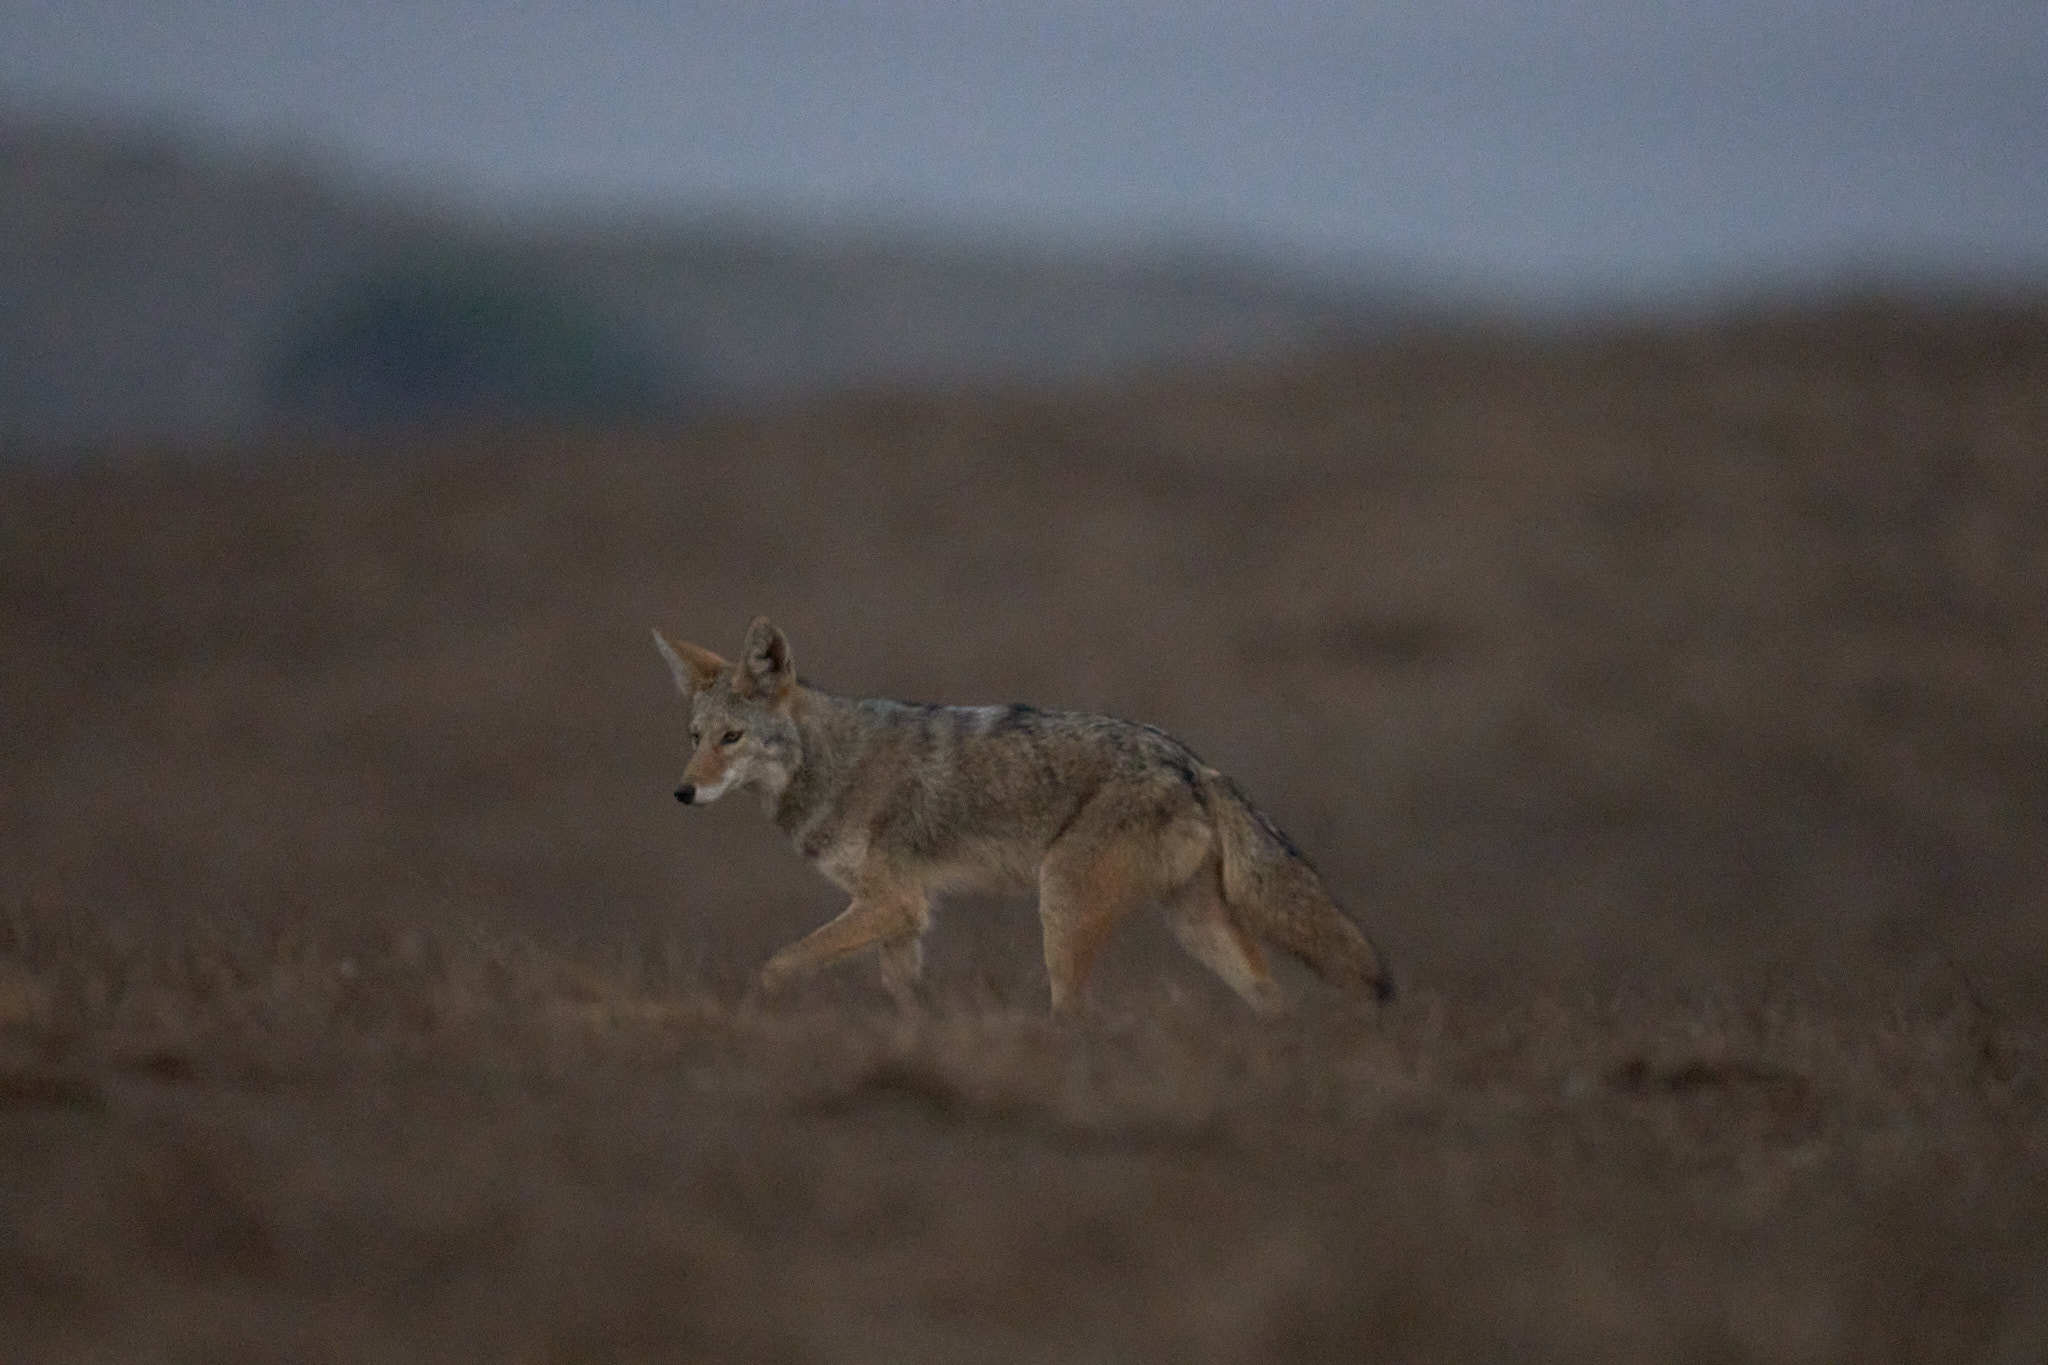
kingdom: Animalia
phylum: Chordata
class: Mammalia
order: Carnivora
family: Canidae
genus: Canis
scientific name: Canis latrans
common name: Coyote
